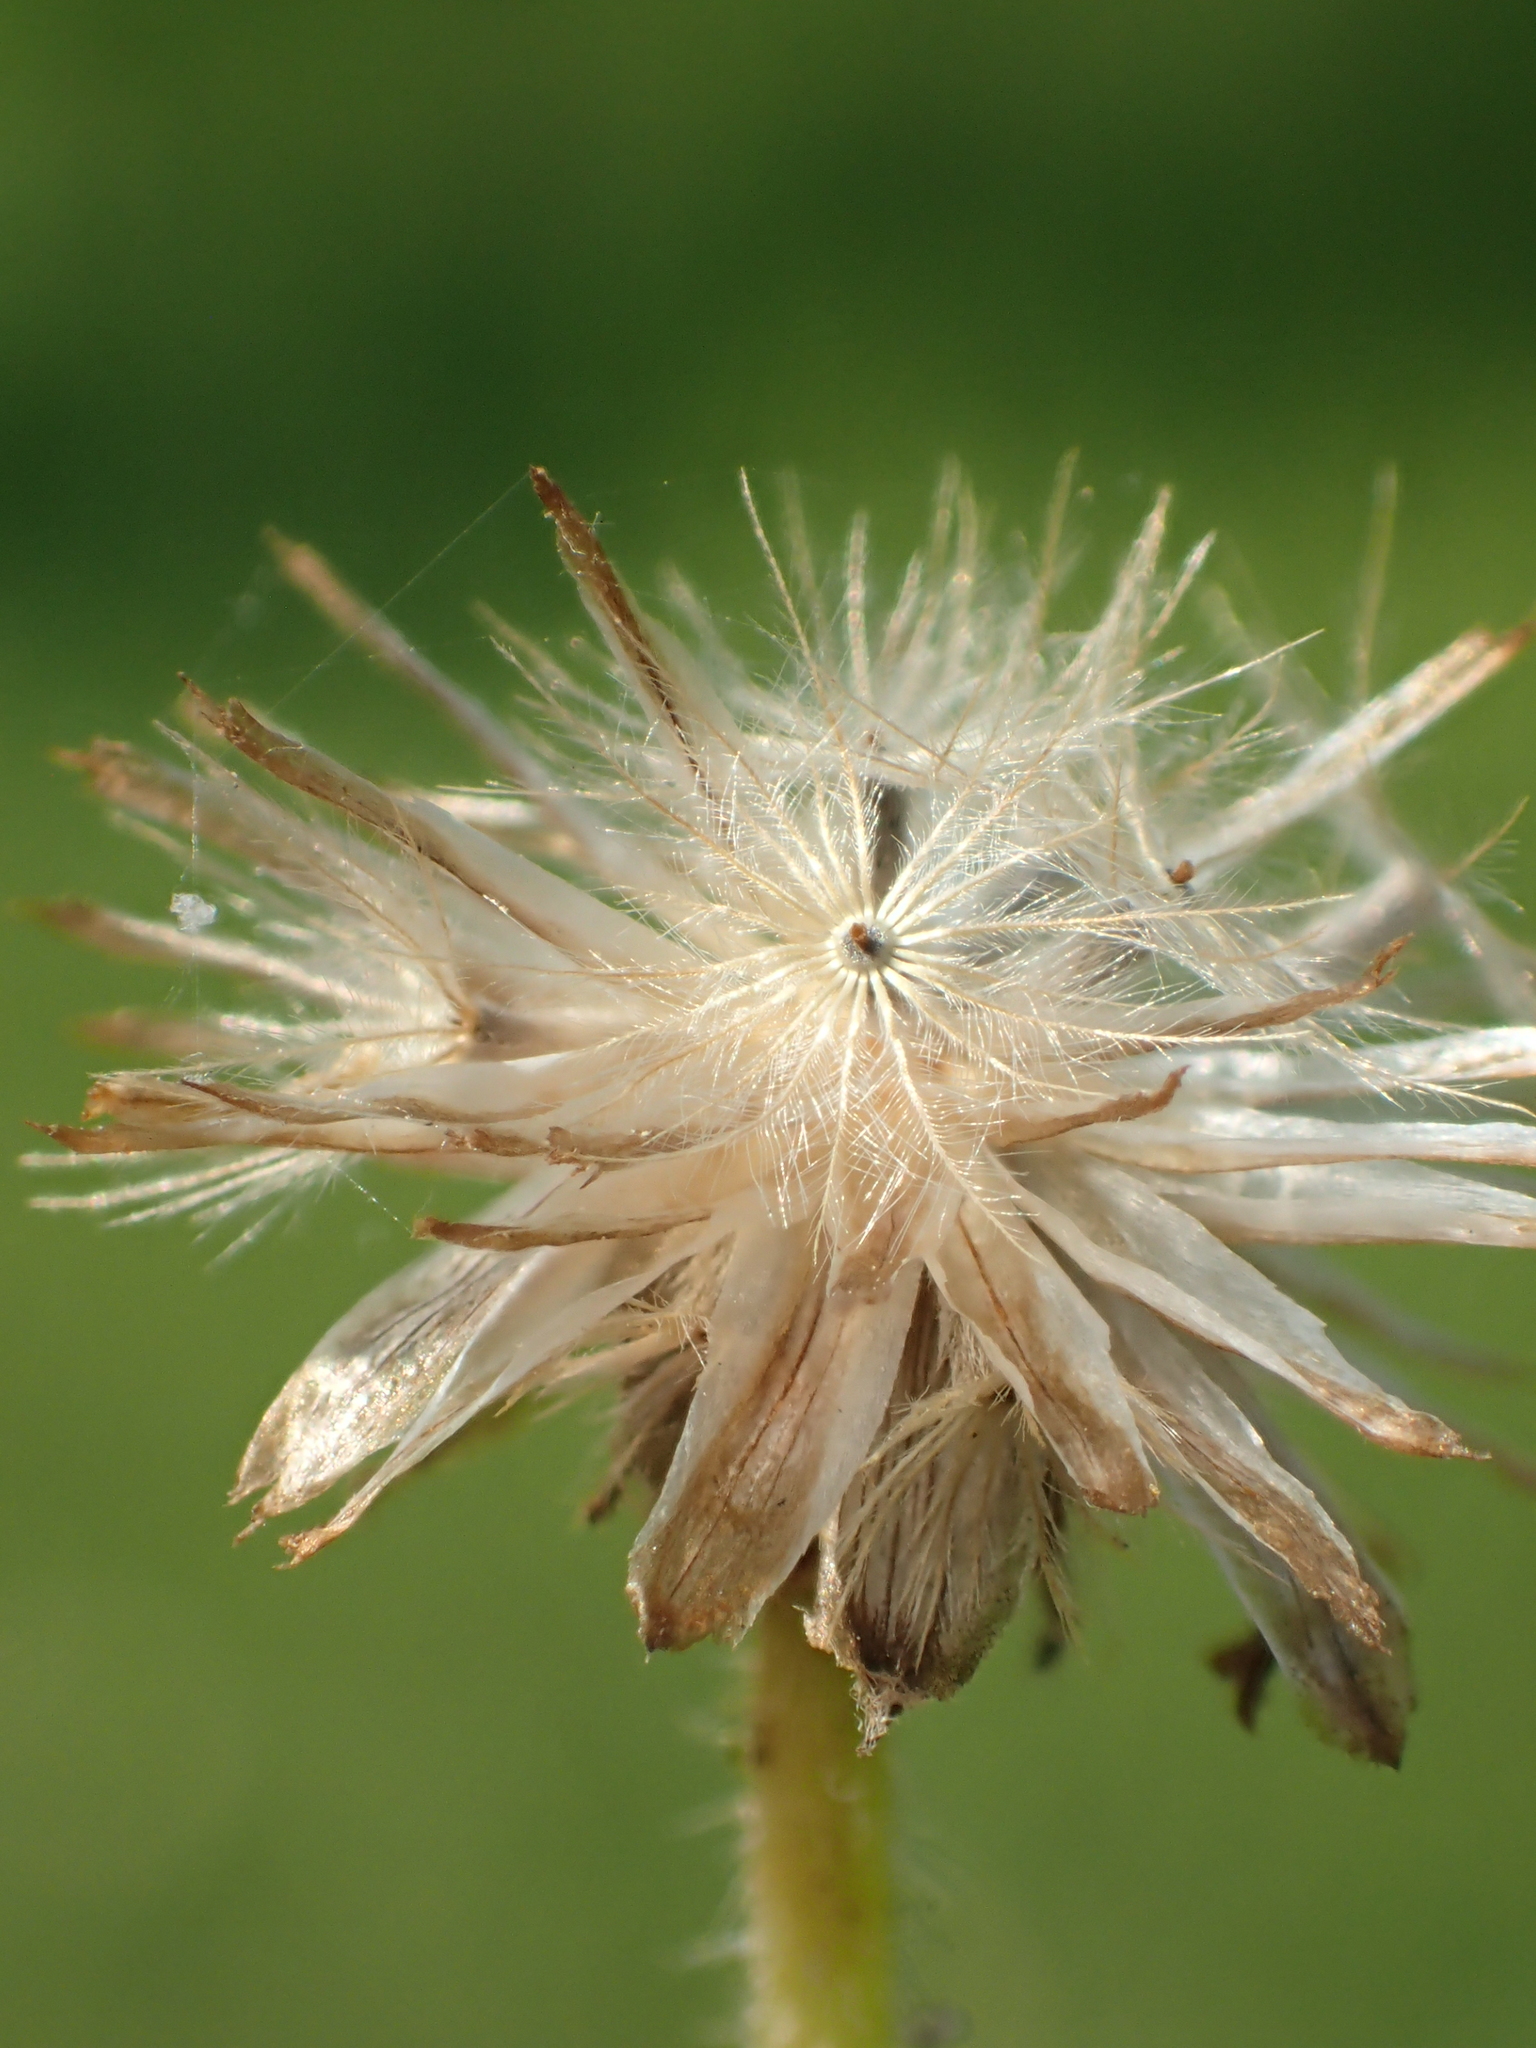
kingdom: Plantae
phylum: Tracheophyta
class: Magnoliopsida
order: Asterales
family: Asteraceae
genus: Tridax
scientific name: Tridax procumbens
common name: Coatbuttons
